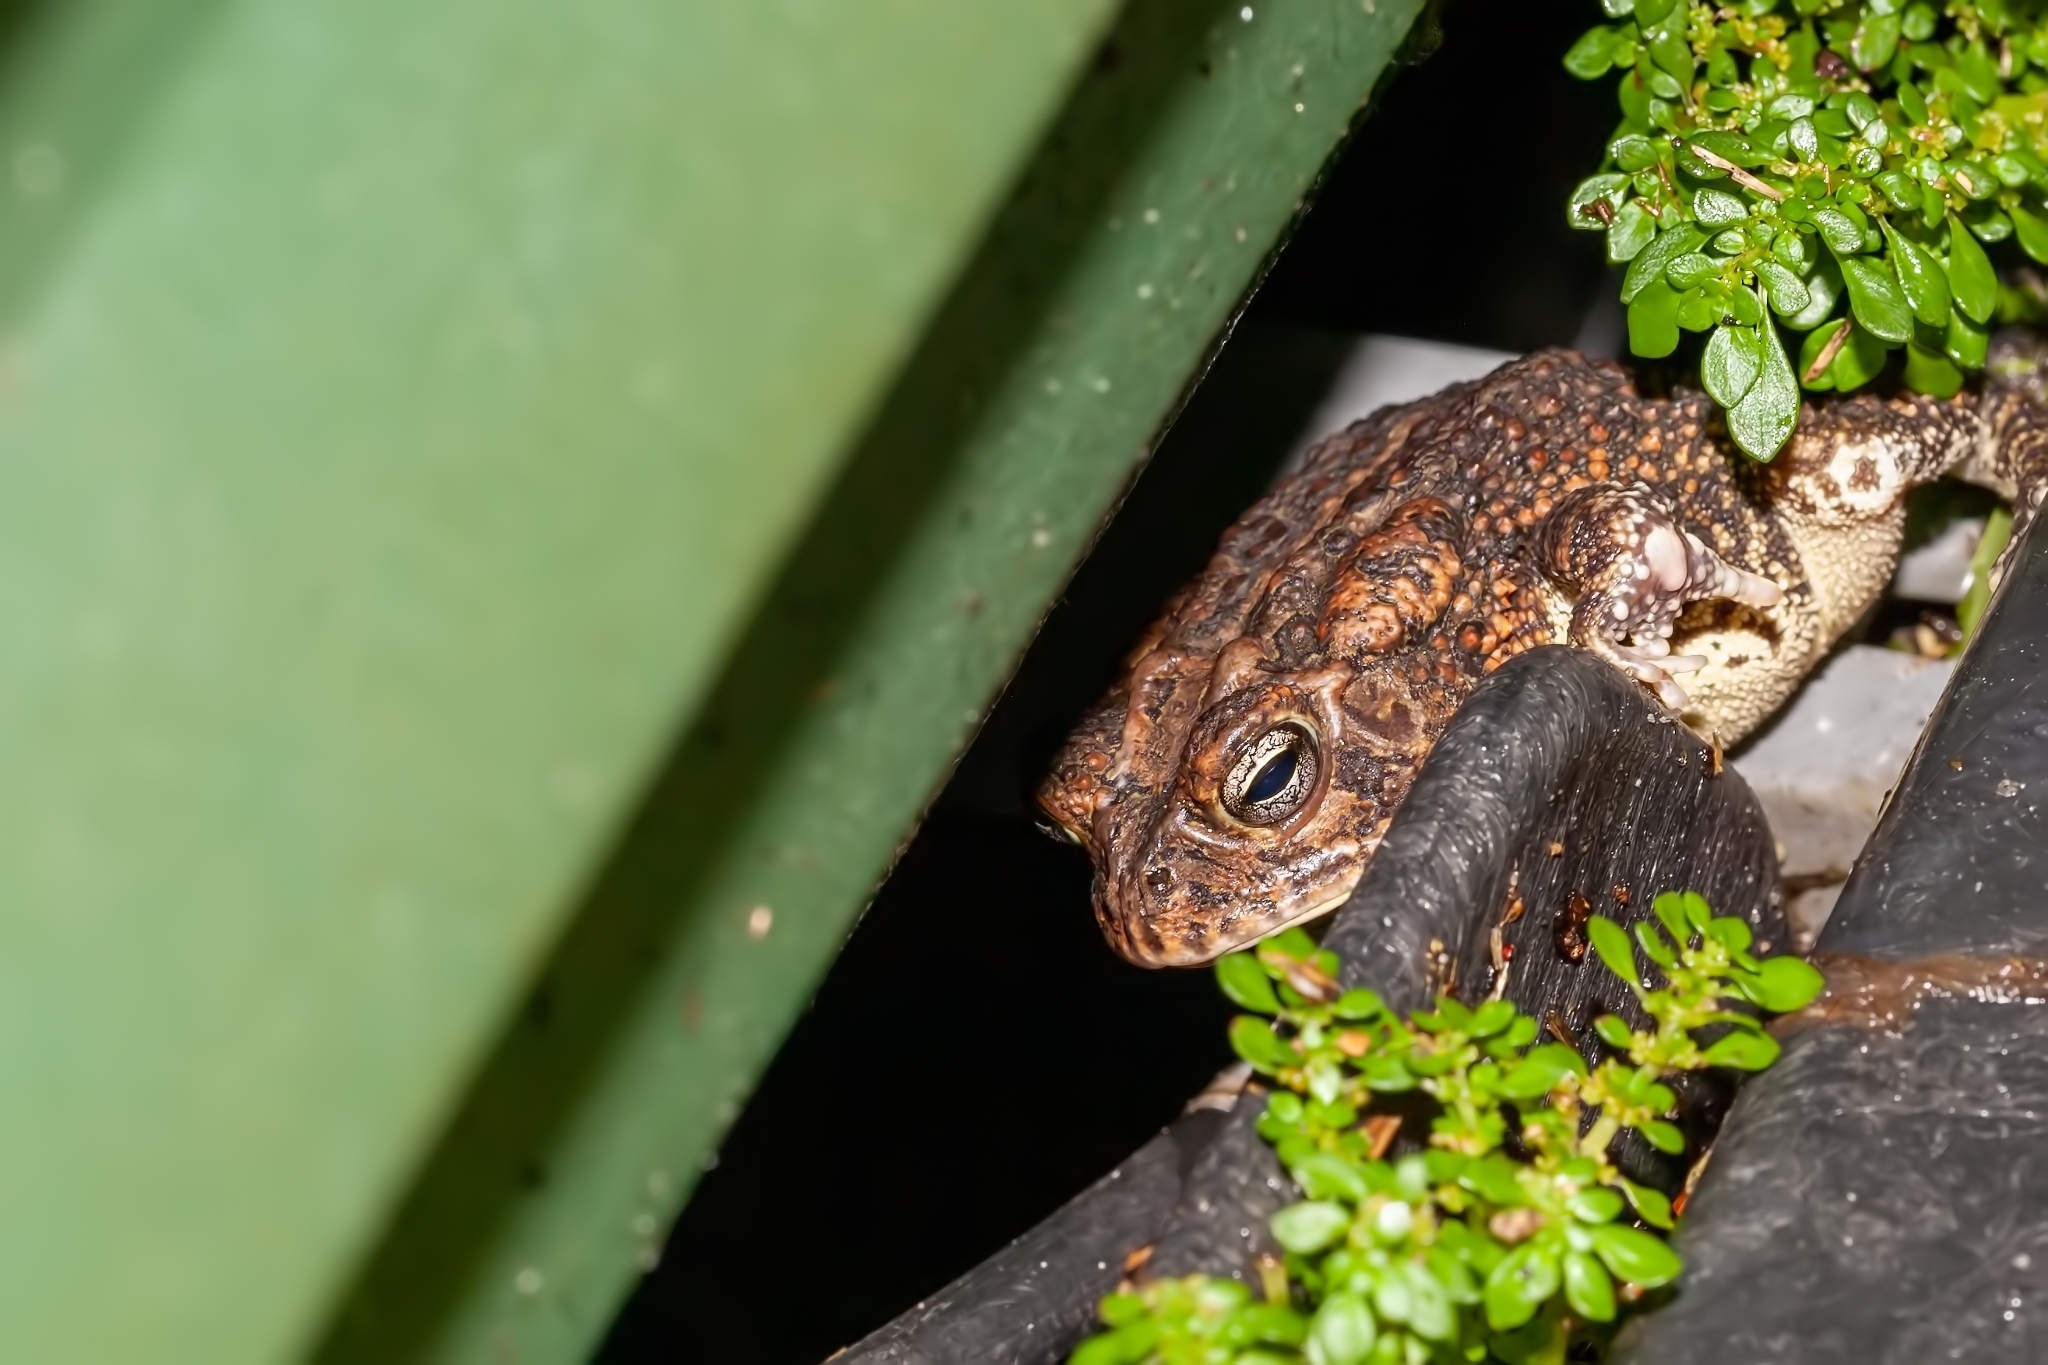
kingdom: Animalia
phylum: Chordata
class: Amphibia
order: Anura
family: Bufonidae
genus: Anaxyrus
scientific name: Anaxyrus terrestris
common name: Southern toad
